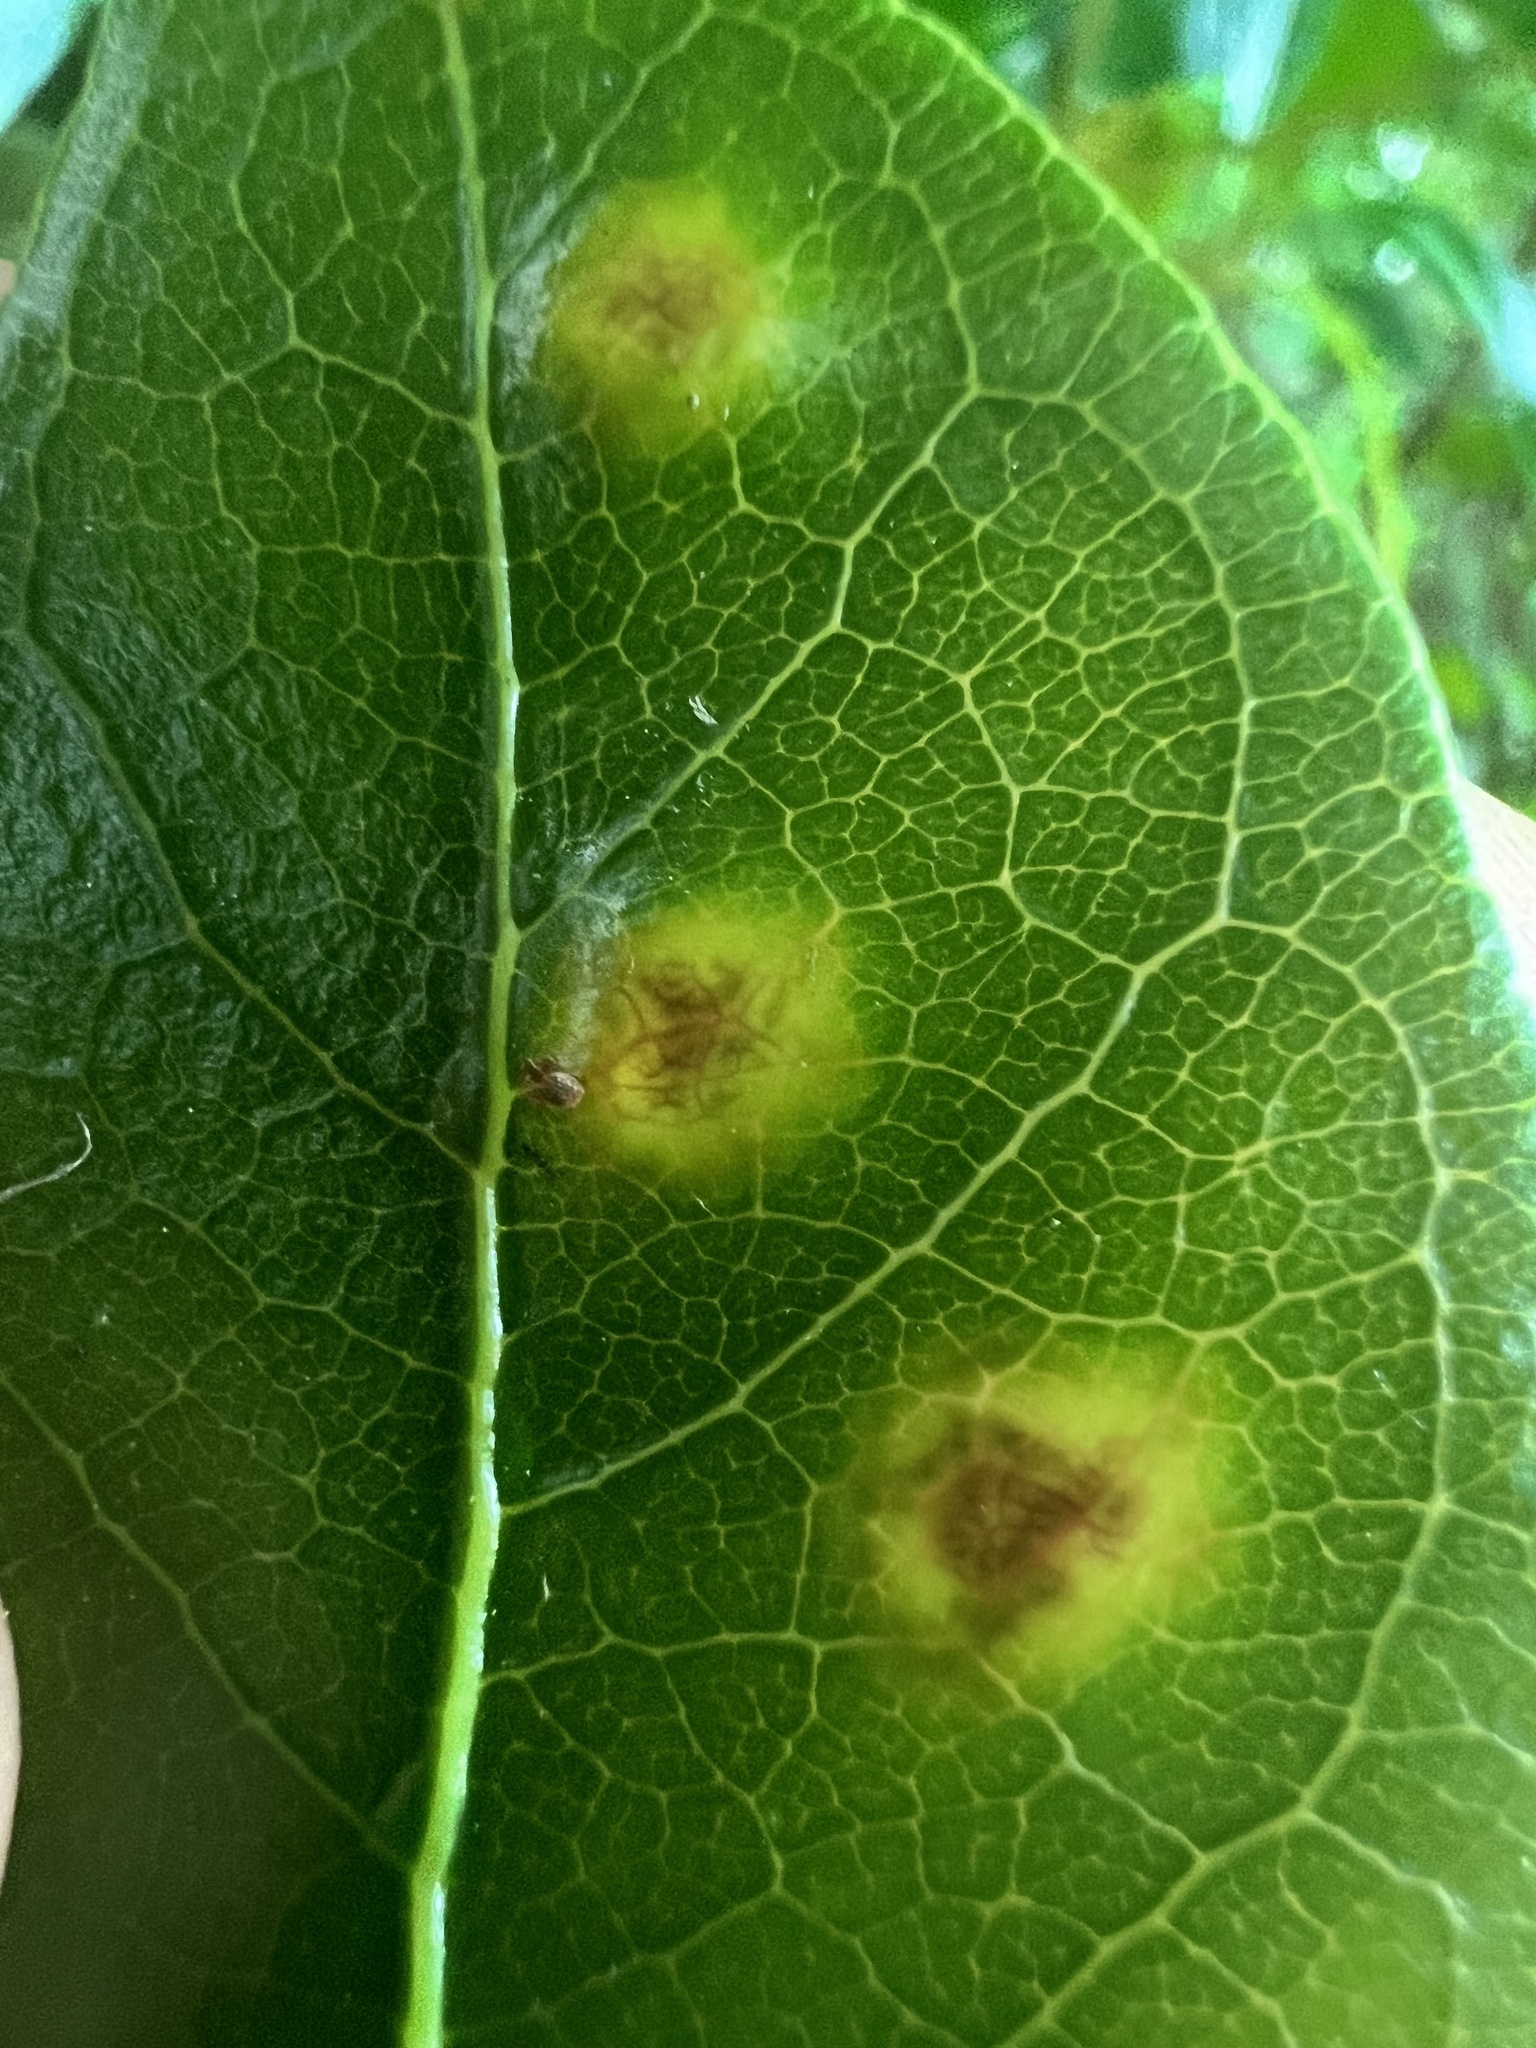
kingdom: Fungi
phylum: Basidiomycota
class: Pucciniomycetes
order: Pucciniales
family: Pucciniaceae
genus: Puccinia
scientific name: Puccinia coprosmae
